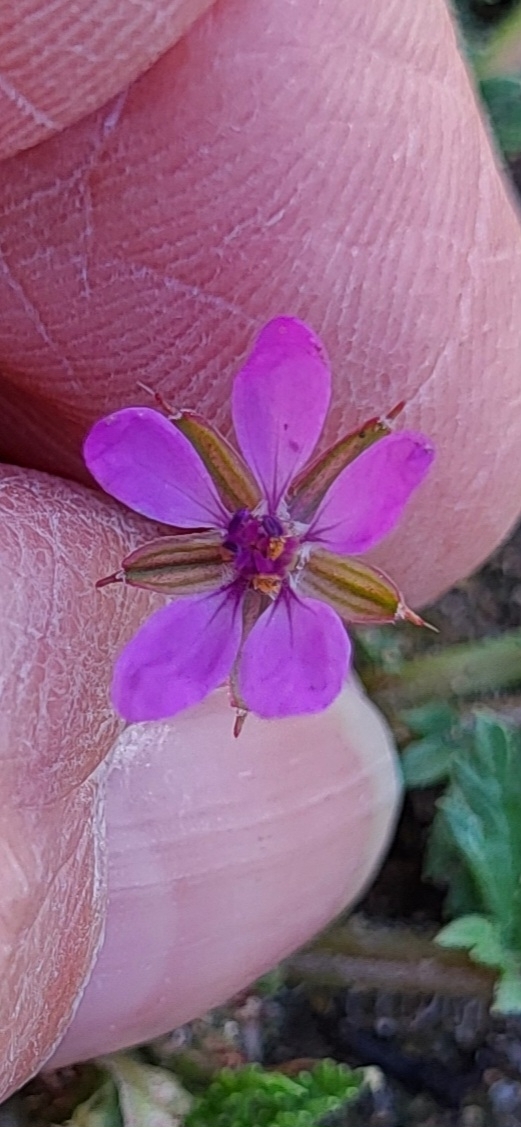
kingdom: Plantae
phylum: Tracheophyta
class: Magnoliopsida
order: Geraniales
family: Geraniaceae
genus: Erodium
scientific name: Erodium cicutarium
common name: Common stork's-bill
